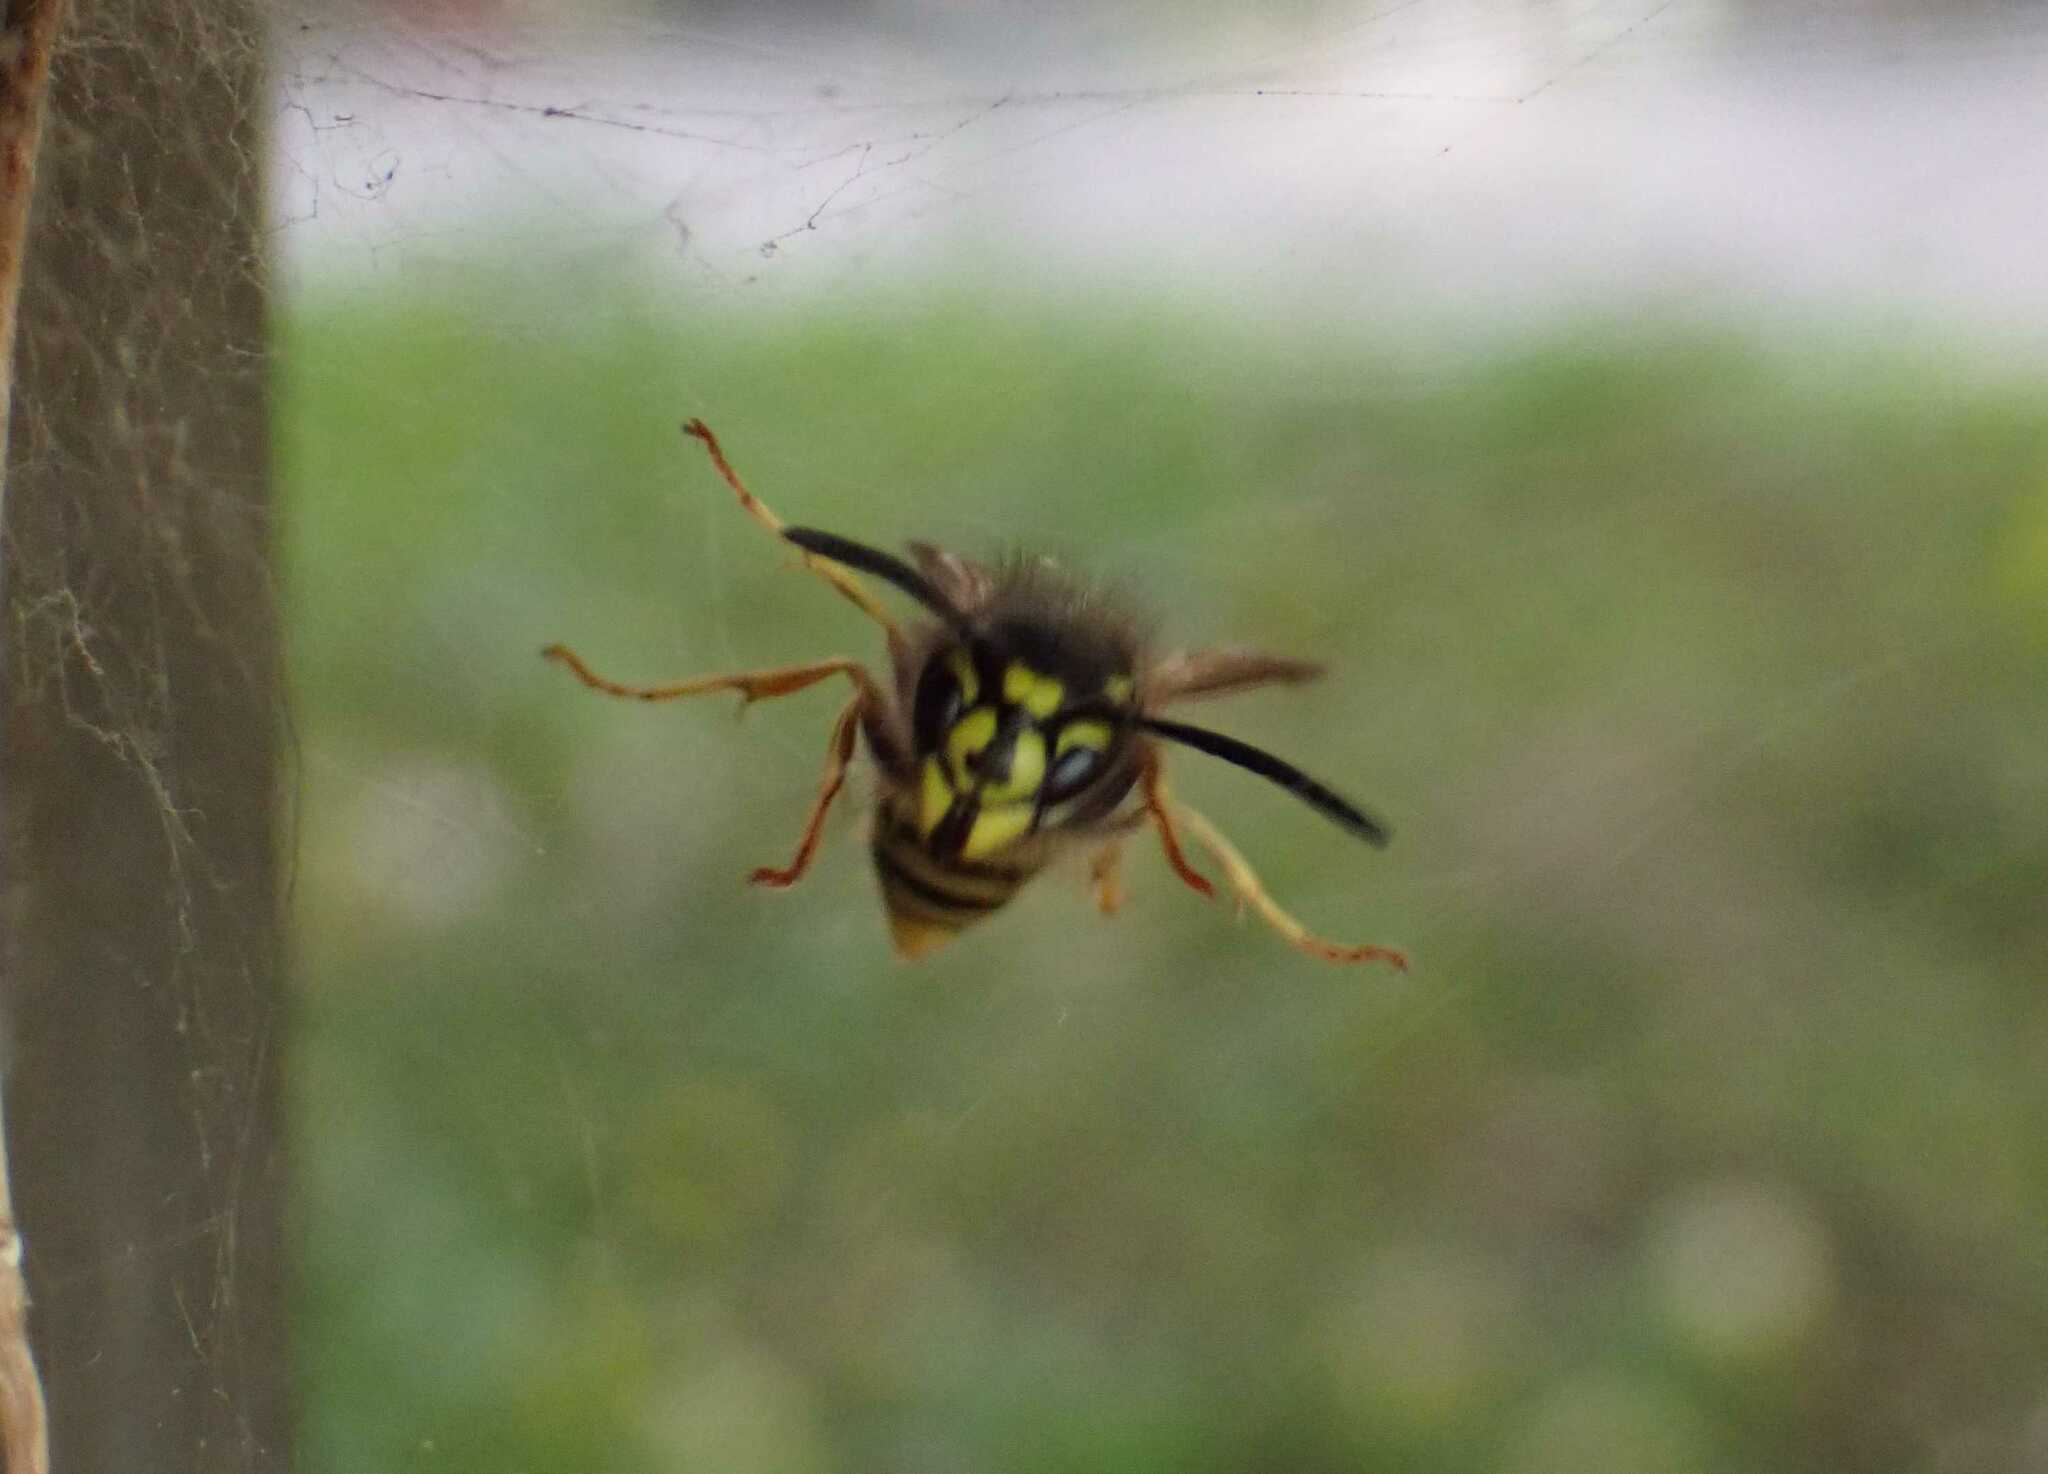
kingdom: Animalia
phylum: Arthropoda
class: Insecta
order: Hymenoptera
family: Vespidae
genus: Vespula
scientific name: Vespula vulgaris
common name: Common wasp
